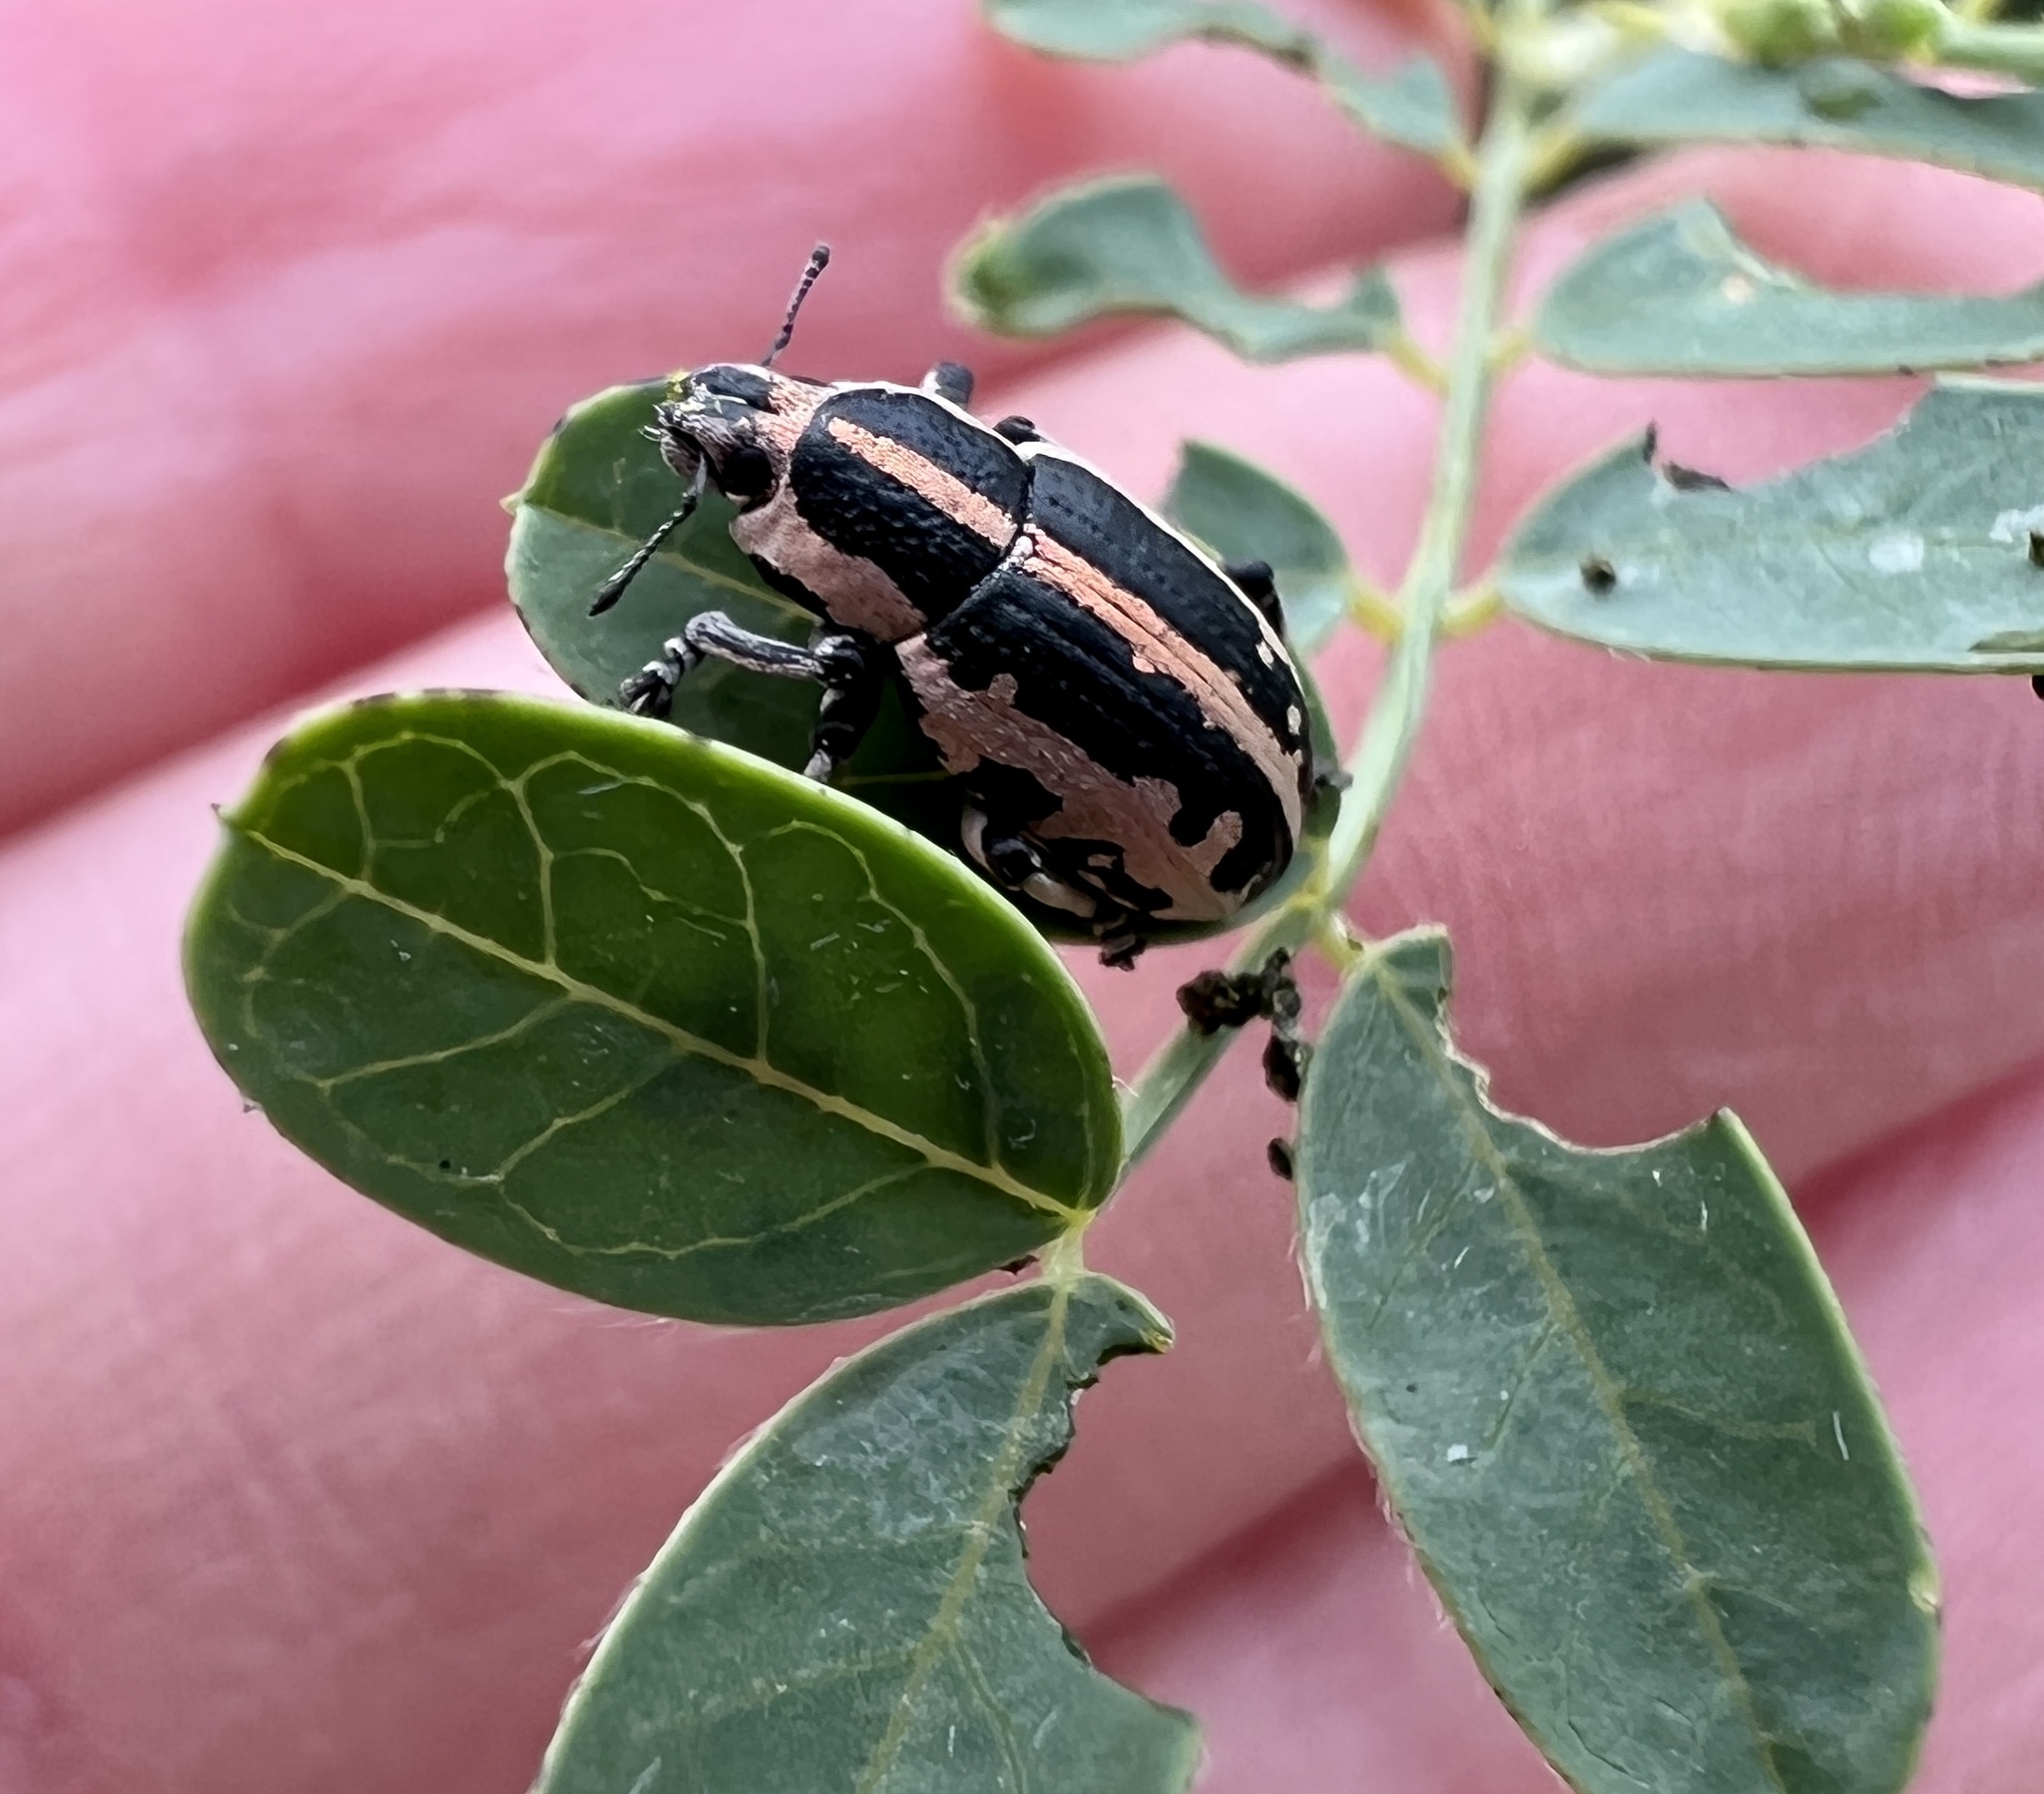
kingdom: Animalia
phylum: Arthropoda
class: Insecta
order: Coleoptera
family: Curculionidae
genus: Eudiagogus
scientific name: Eudiagogus rosenschoeldi
